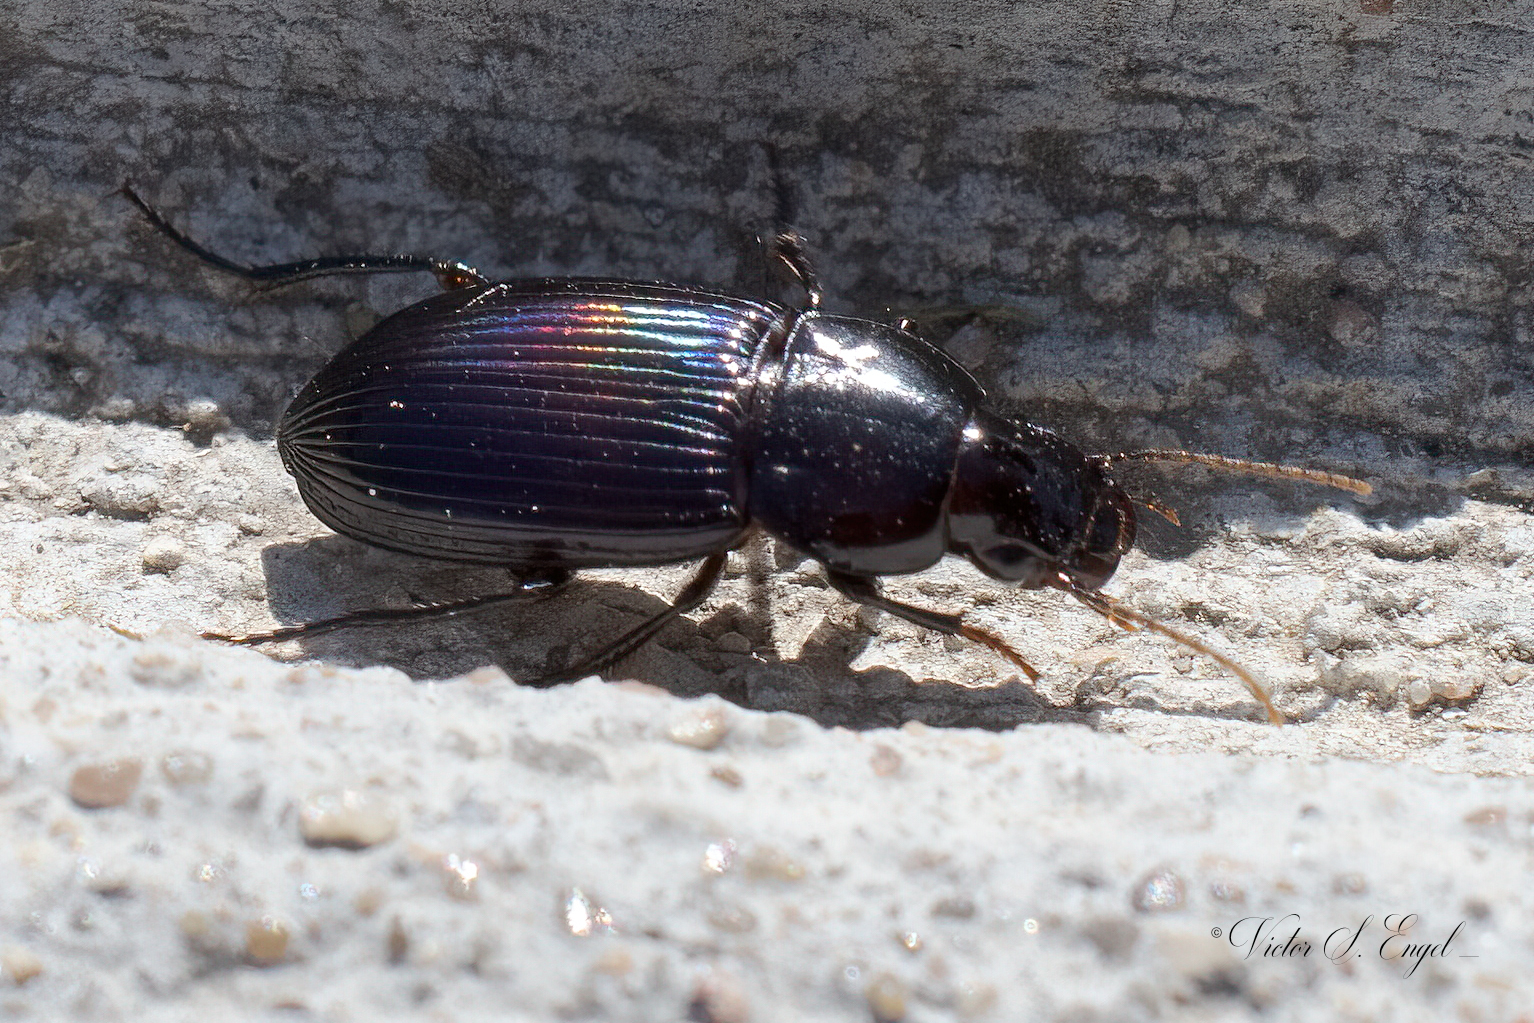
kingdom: Animalia
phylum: Arthropoda
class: Insecta
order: Coleoptera
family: Carabidae
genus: Aztecarpalus
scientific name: Aztecarpalus schaefferi
